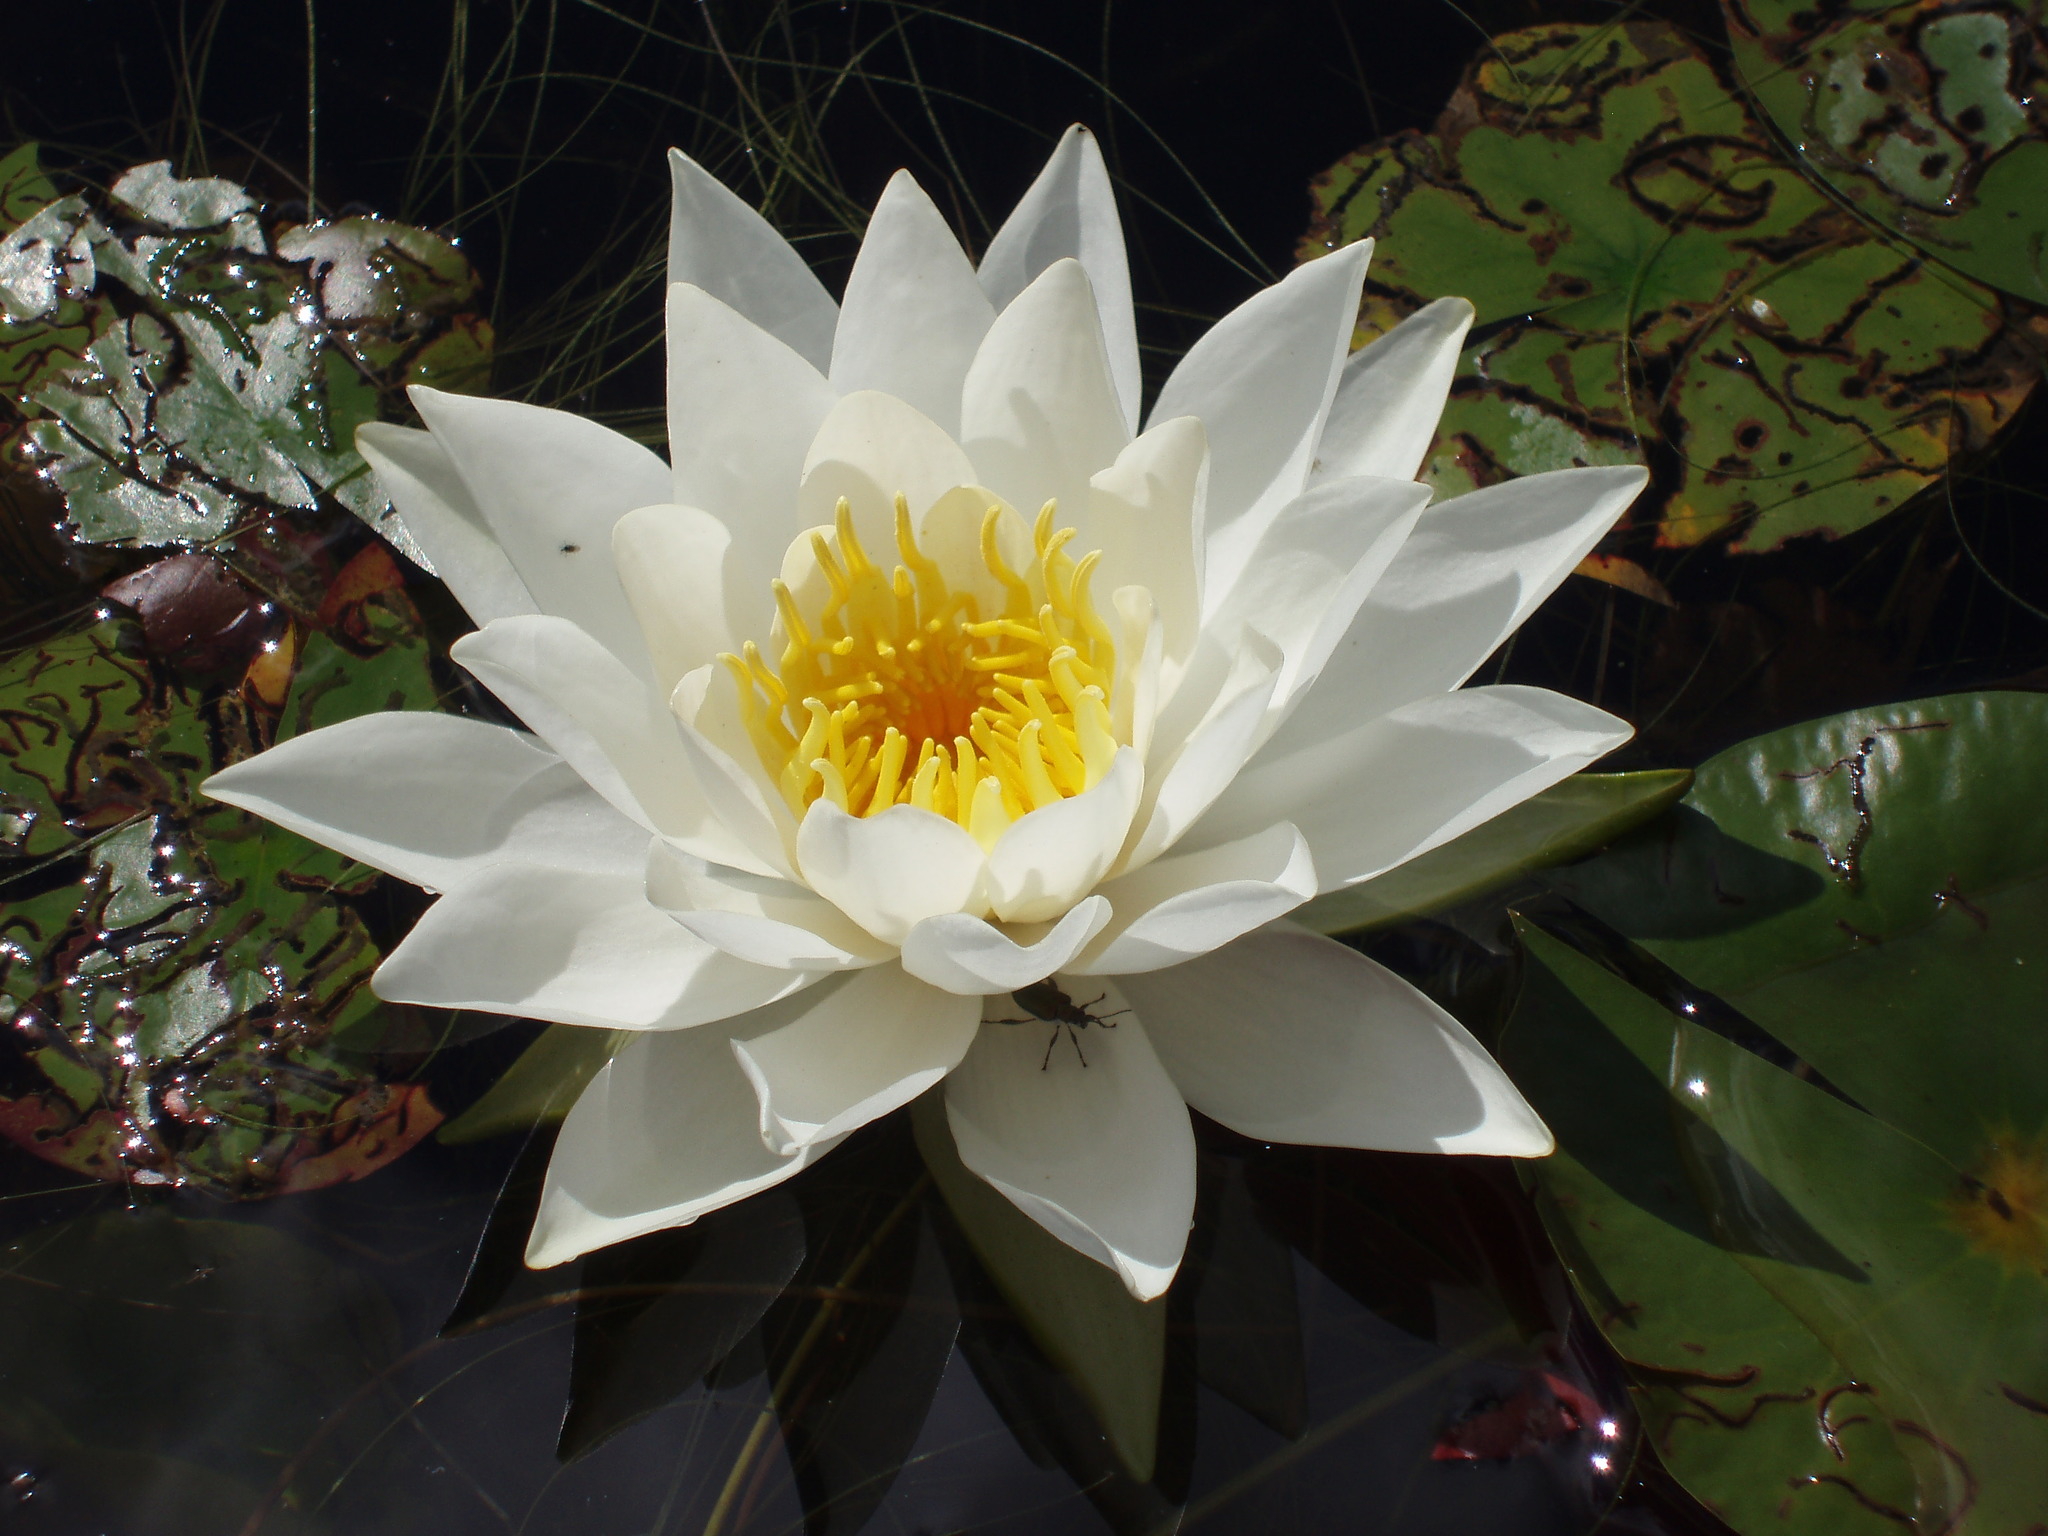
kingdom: Plantae
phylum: Tracheophyta
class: Magnoliopsida
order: Nymphaeales
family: Nymphaeaceae
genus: Nymphaea
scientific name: Nymphaea odorata
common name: Fragrant water-lily
